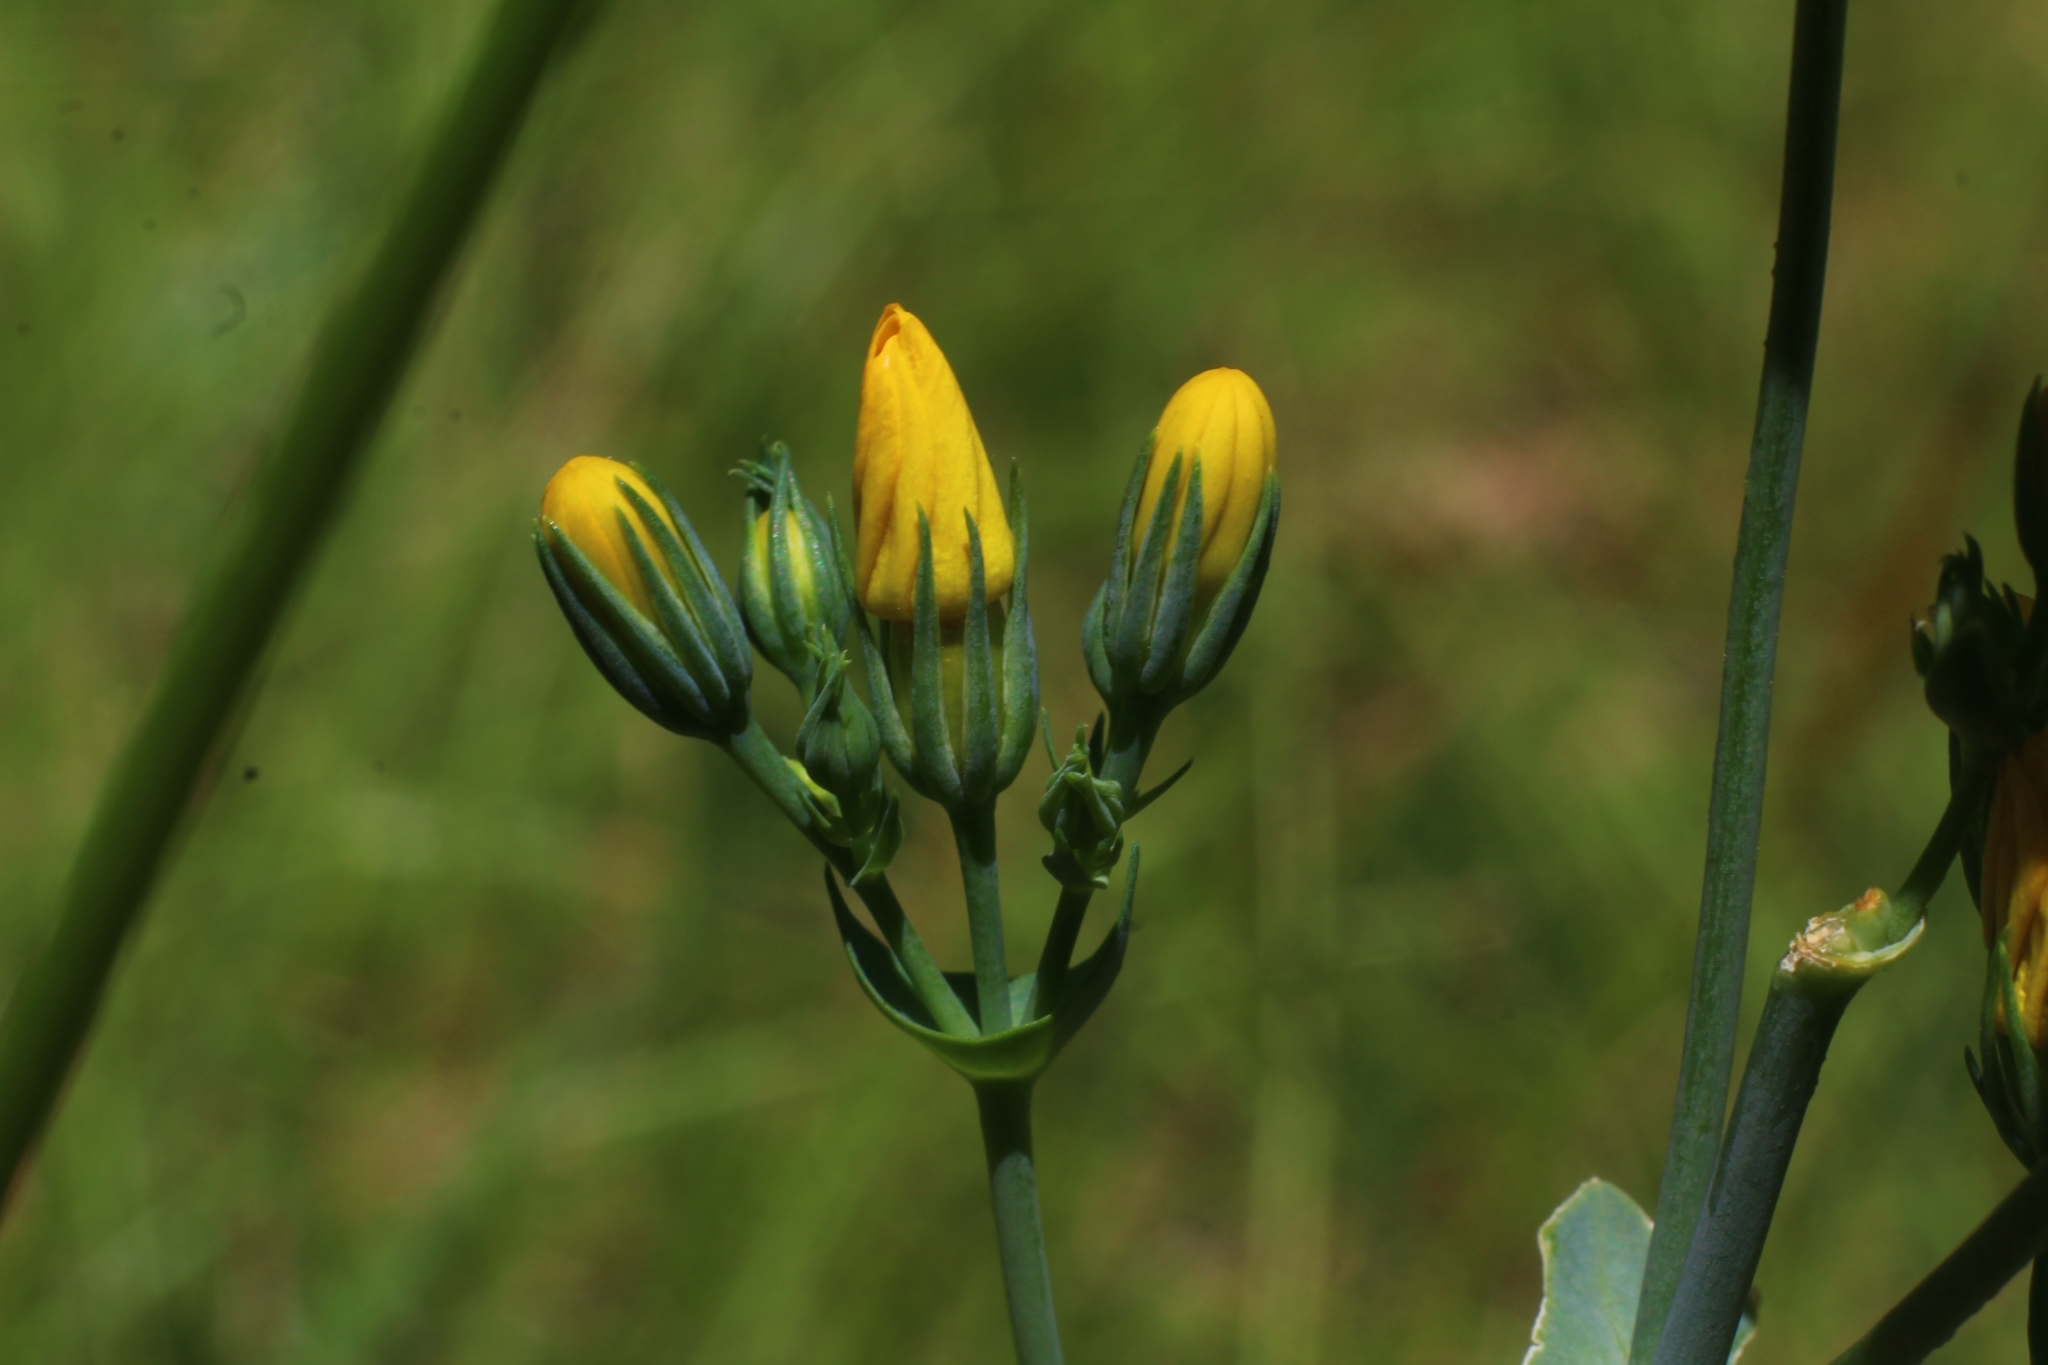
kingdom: Plantae
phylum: Tracheophyta
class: Magnoliopsida
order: Gentianales
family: Gentianaceae
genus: Blackstonia
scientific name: Blackstonia perfoliata
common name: Yellow-wort
